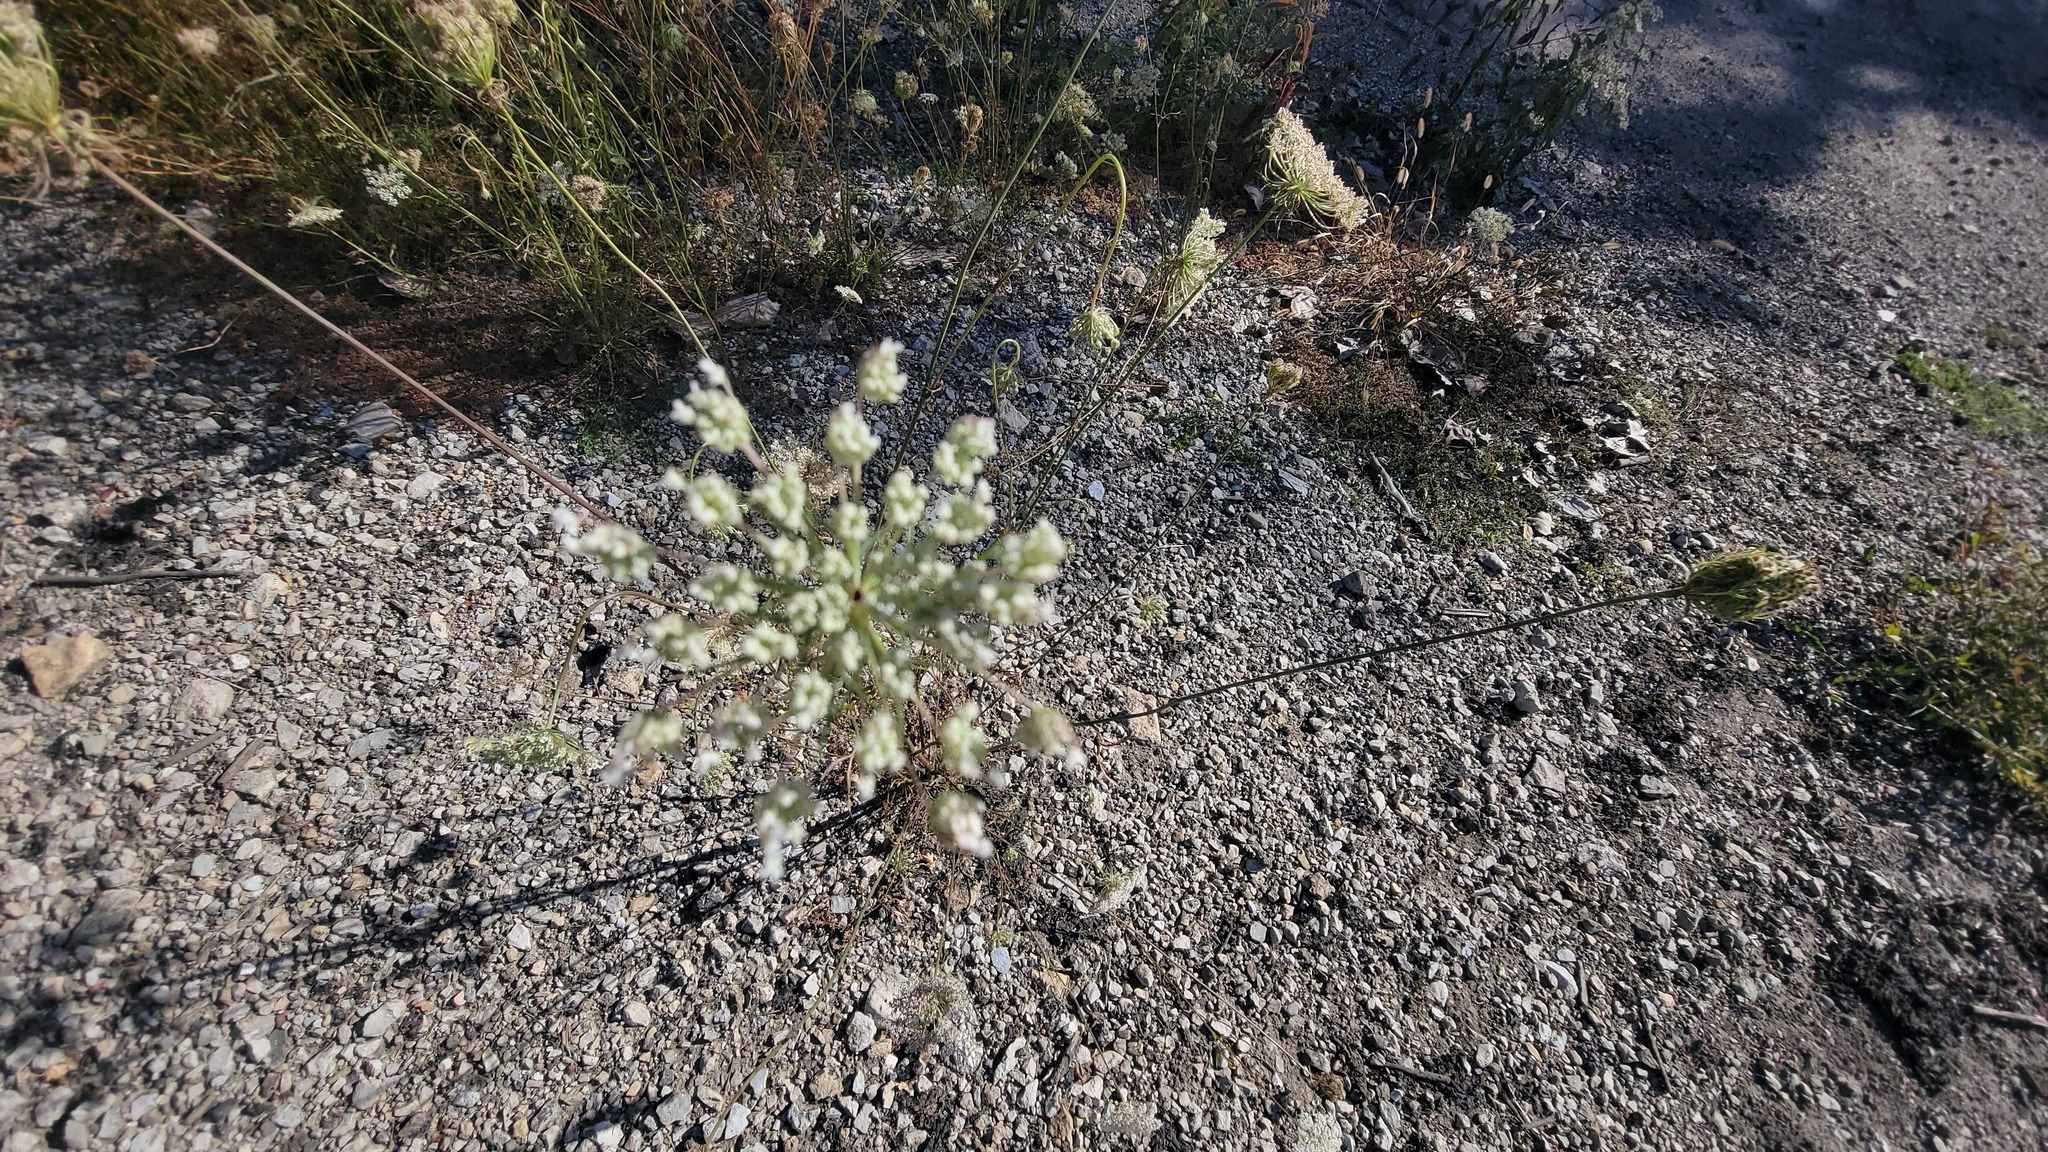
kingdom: Plantae
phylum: Tracheophyta
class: Magnoliopsida
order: Apiales
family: Apiaceae
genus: Daucus
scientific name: Daucus carota
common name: Wild carrot
